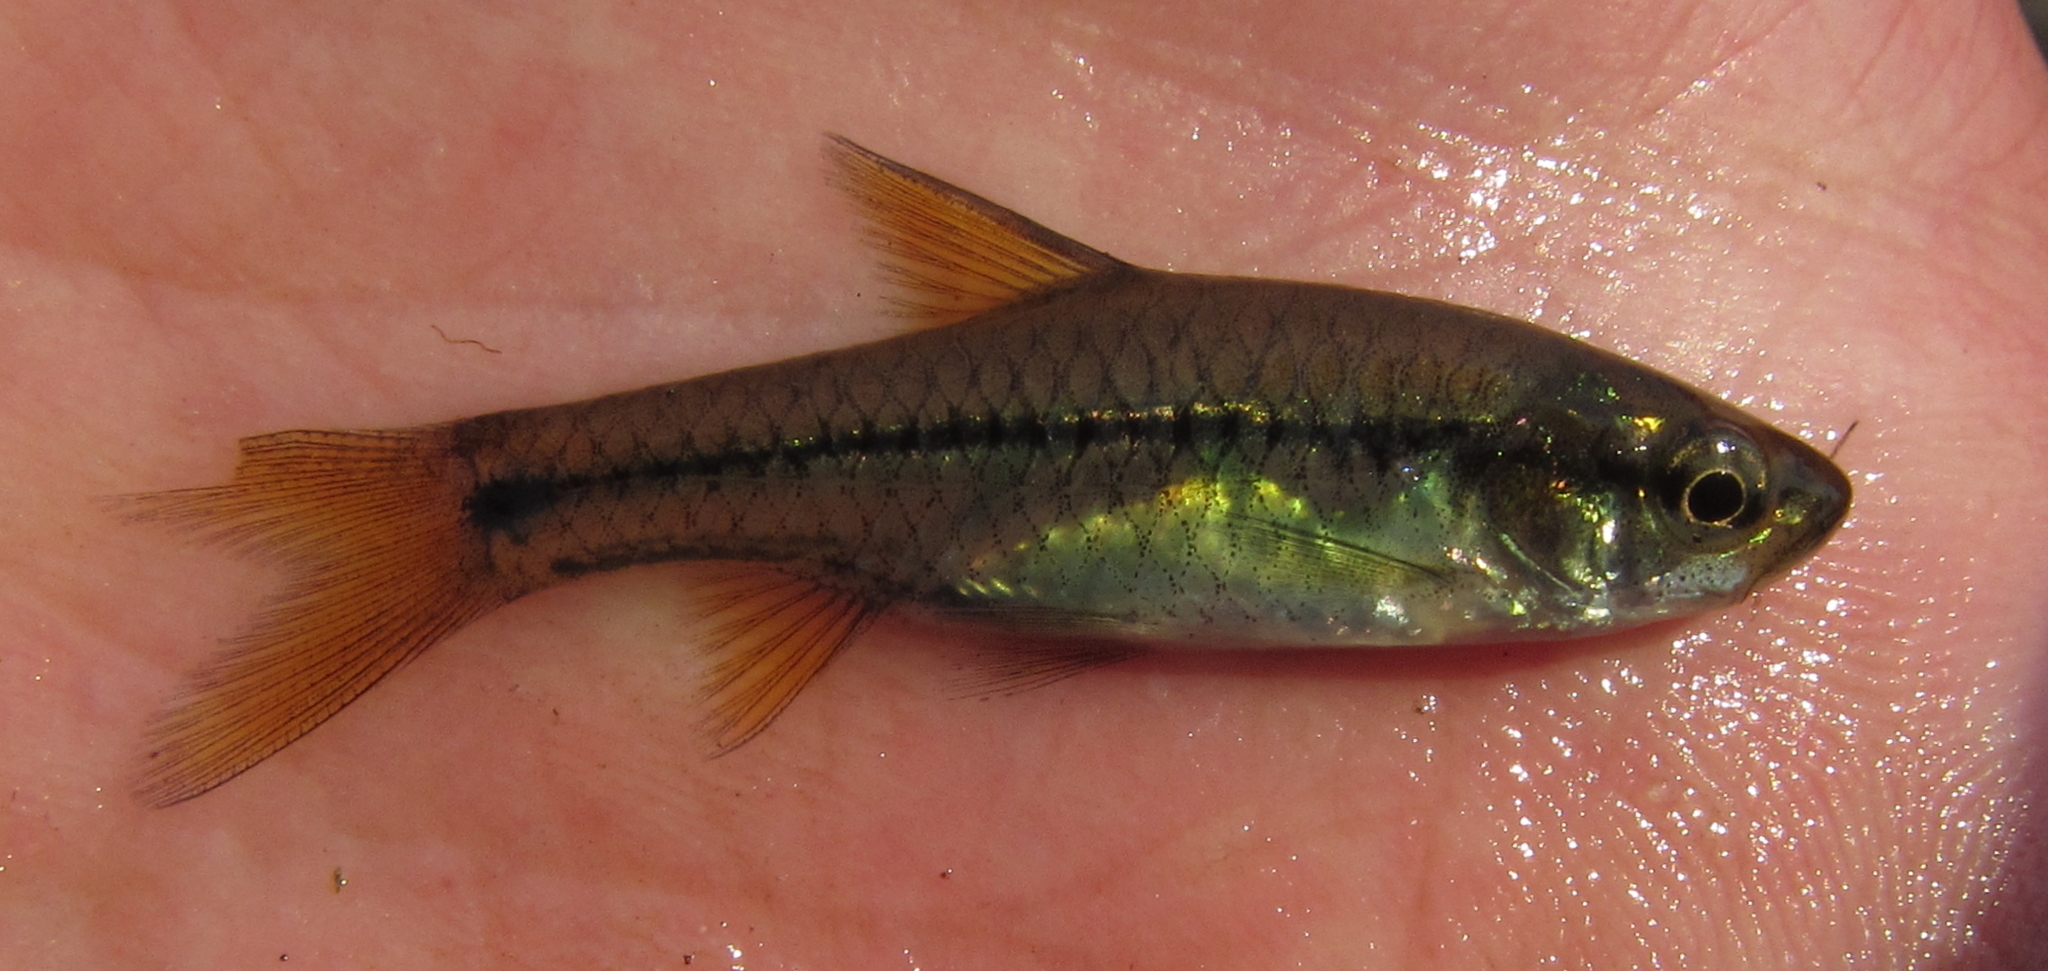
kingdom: Animalia
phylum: Chordata
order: Cypriniformes
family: Cyprinidae
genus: Enteromius
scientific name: Enteromius kerstenii
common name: Redspot barb
